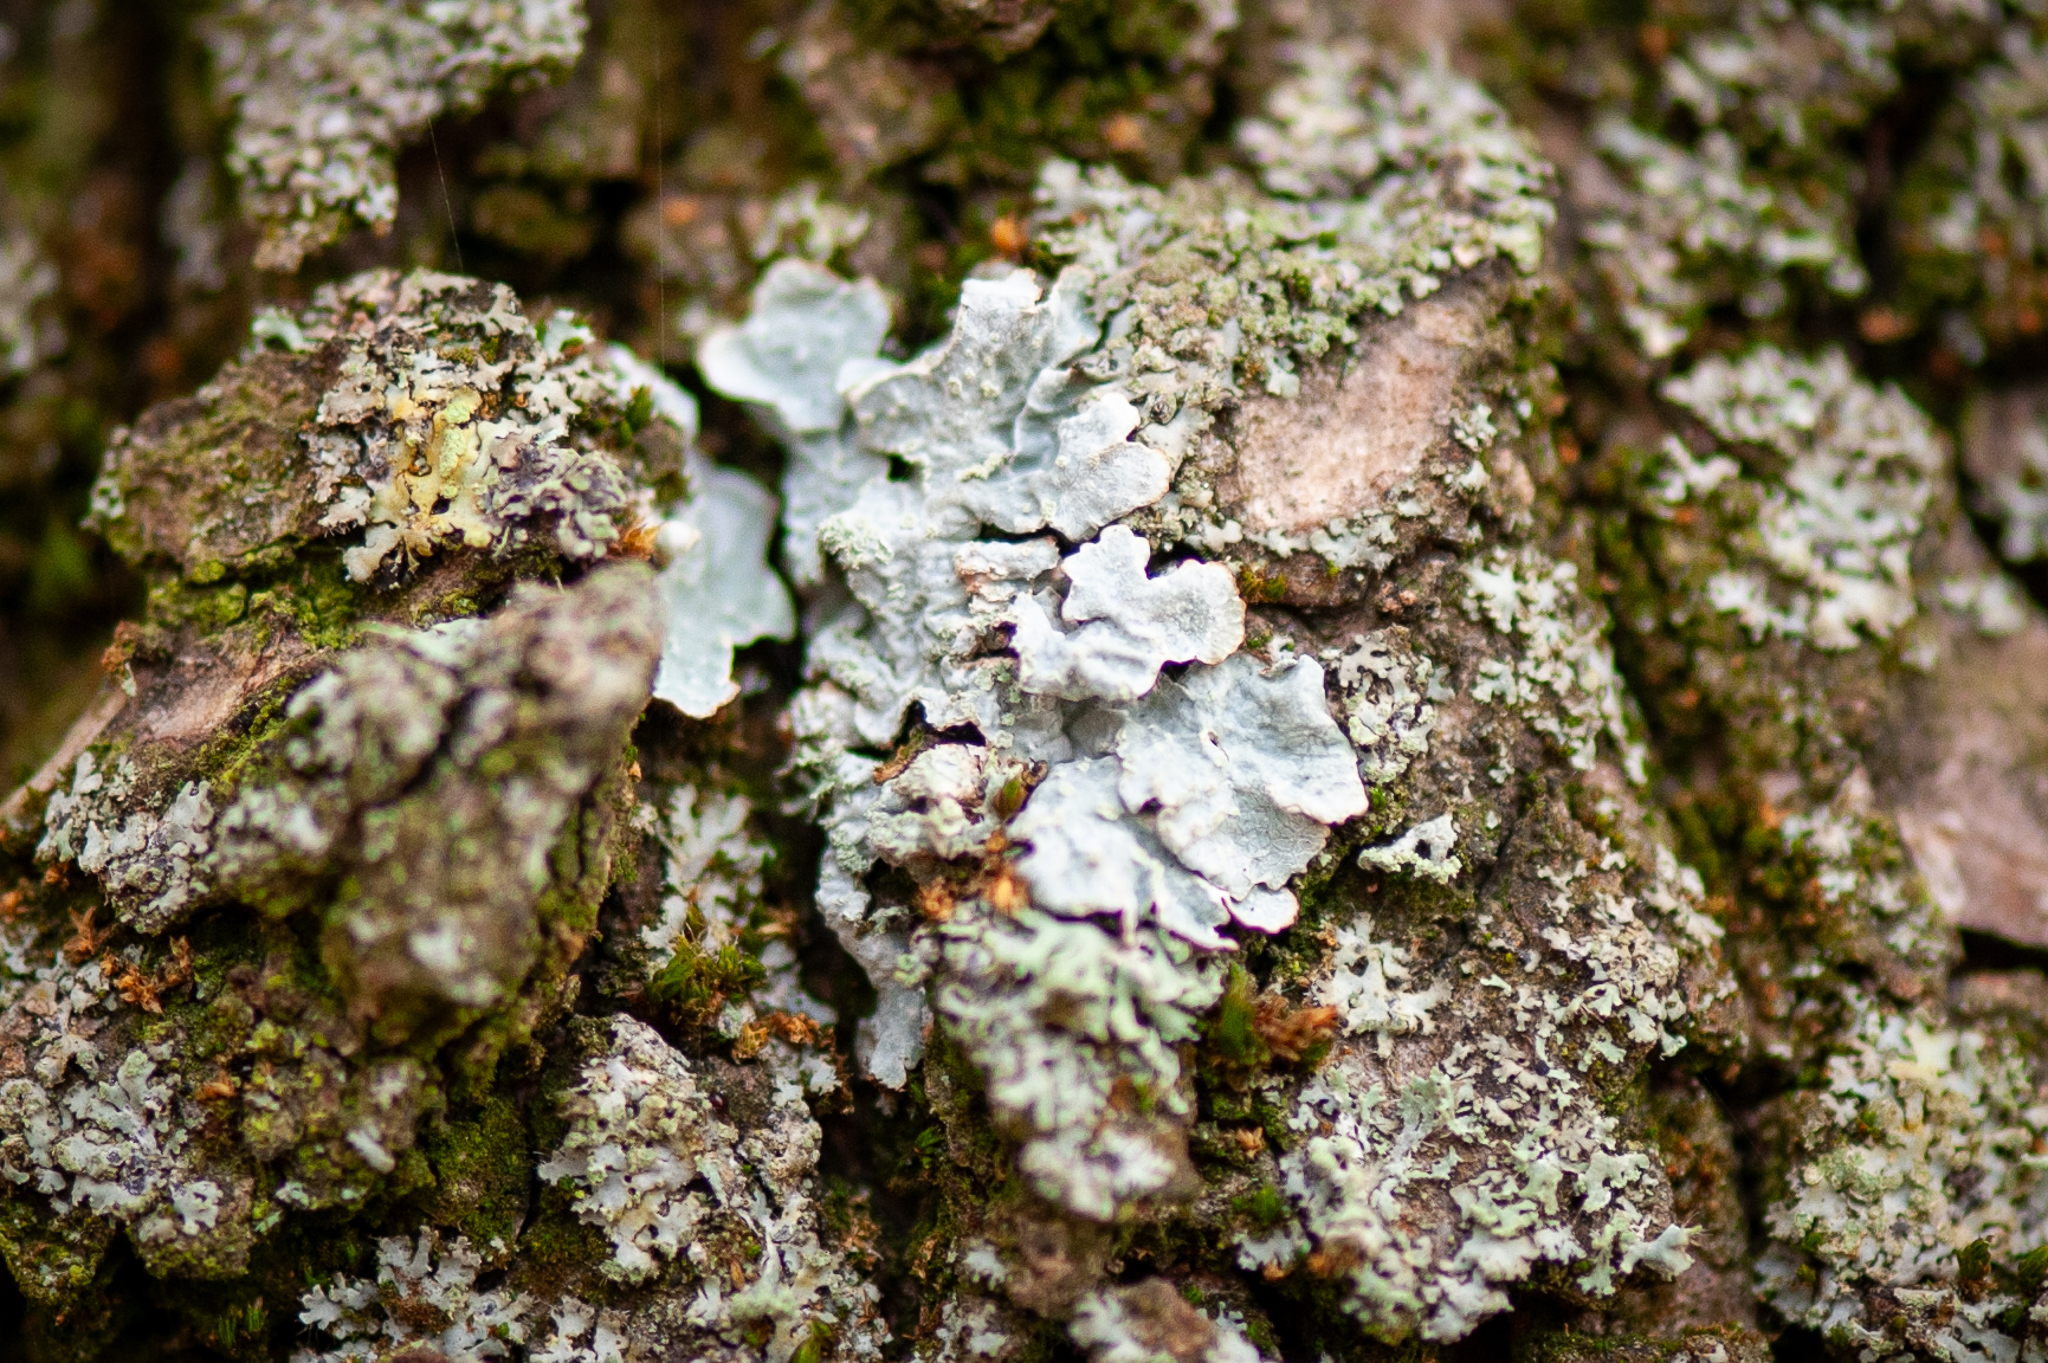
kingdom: Fungi
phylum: Ascomycota
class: Lecanoromycetes
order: Lecanorales
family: Parmeliaceae
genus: Parmelia
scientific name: Parmelia sulcata
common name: Netted shield lichen
